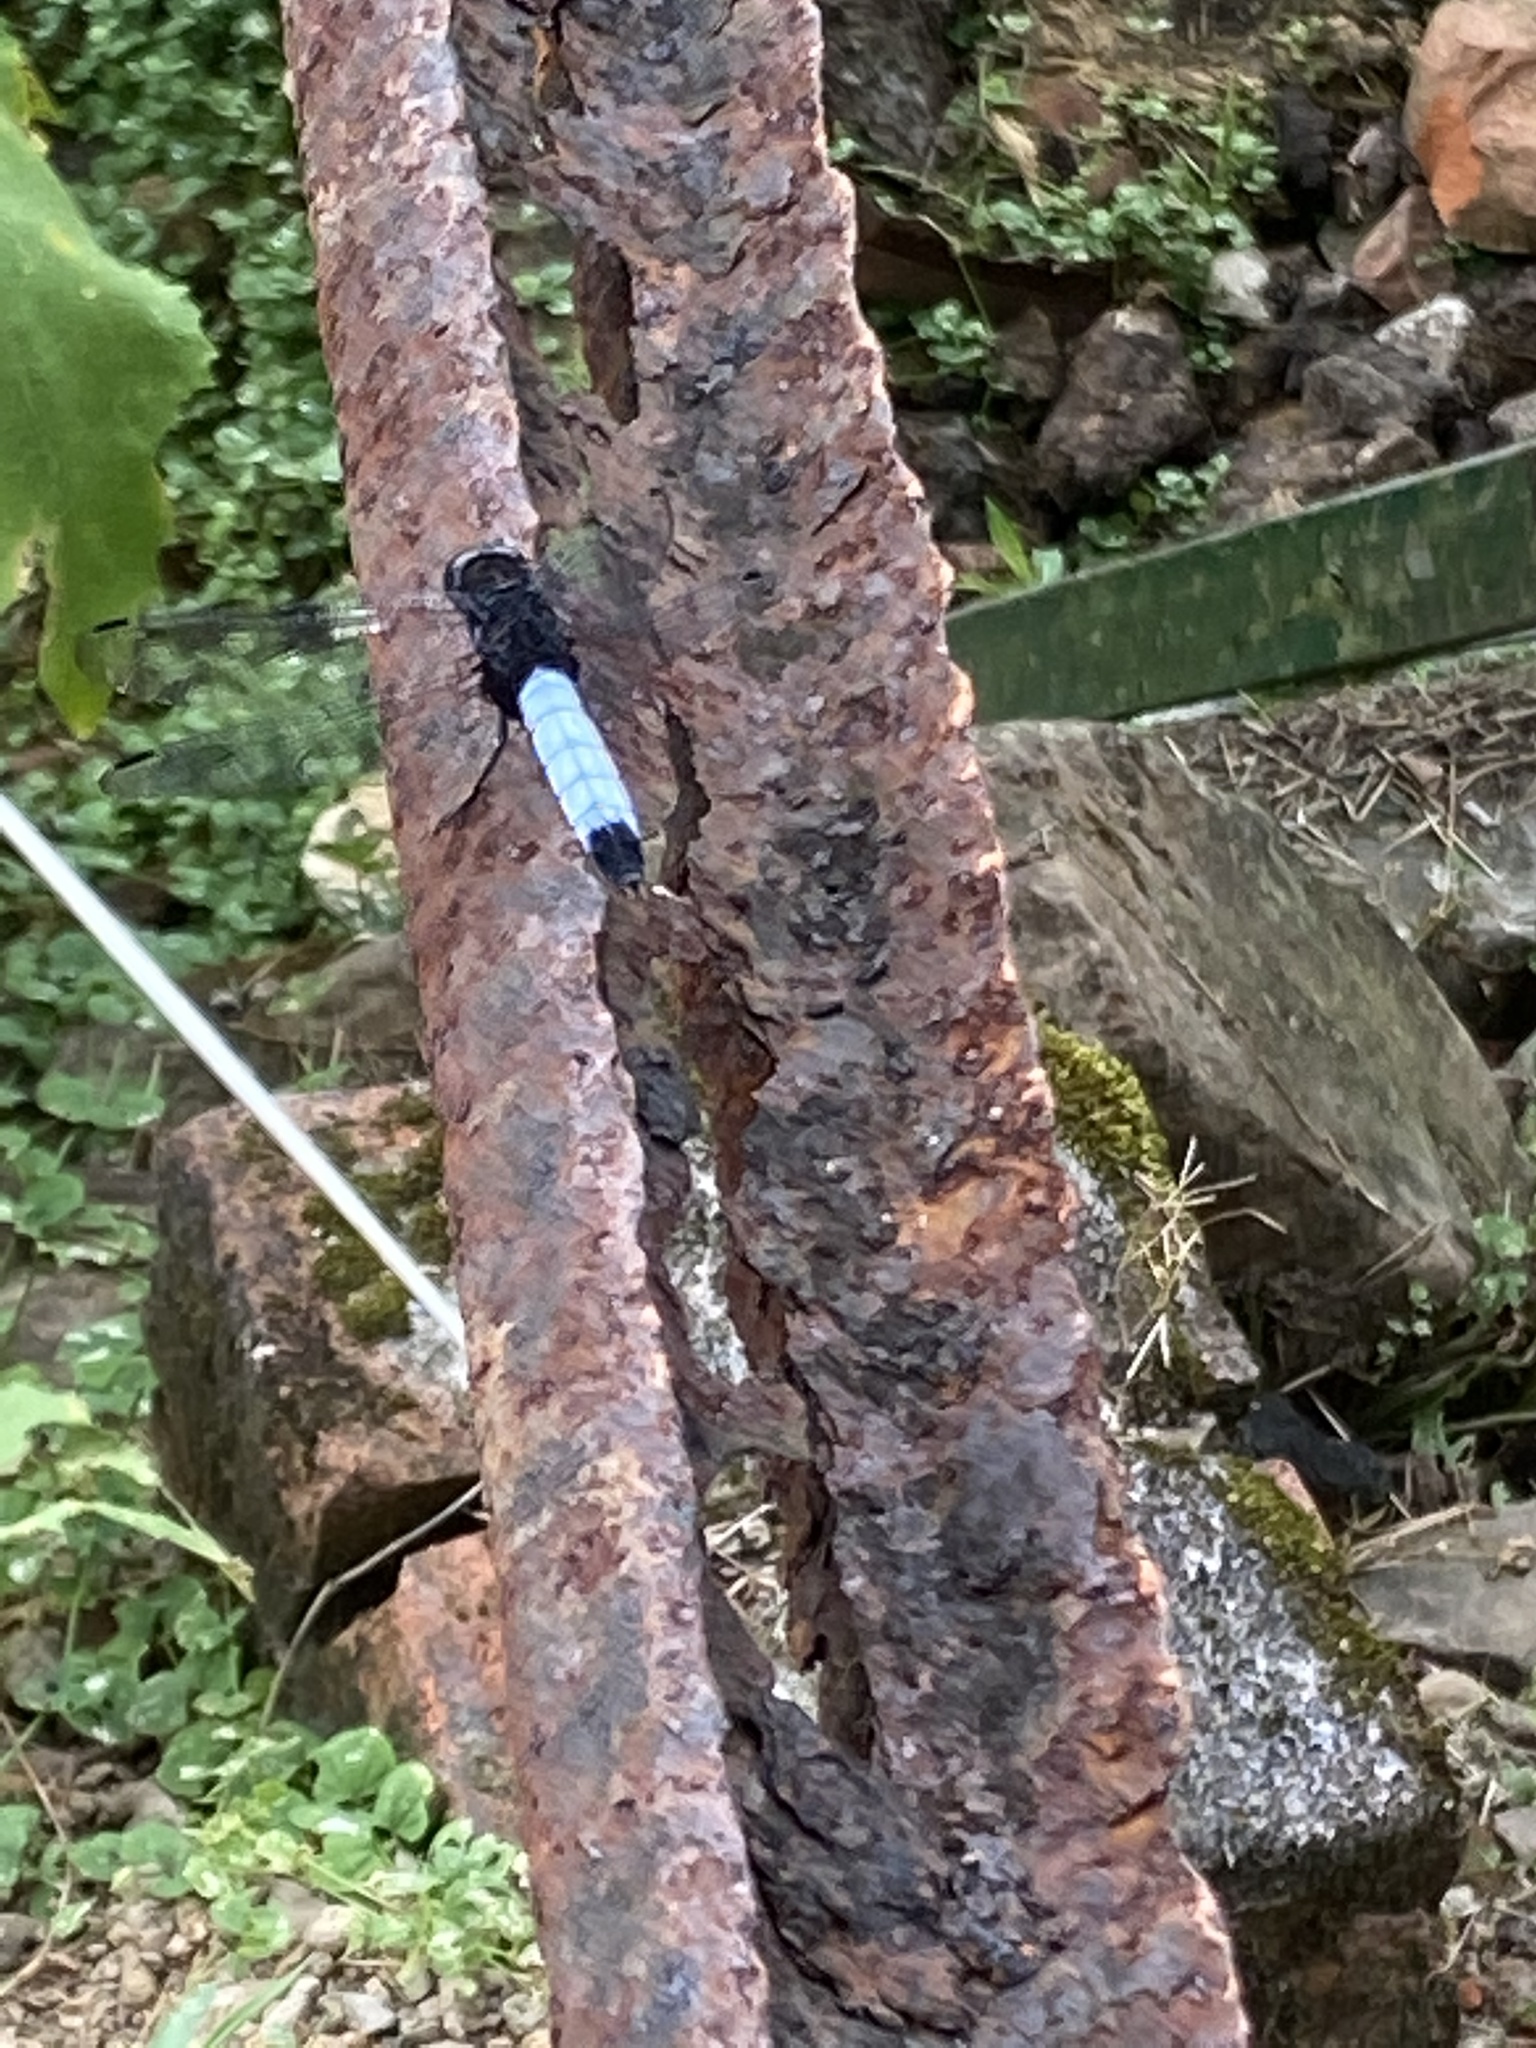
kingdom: Animalia
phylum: Arthropoda
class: Insecta
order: Odonata
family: Libellulidae
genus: Orthetrum
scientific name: Orthetrum triangulare
